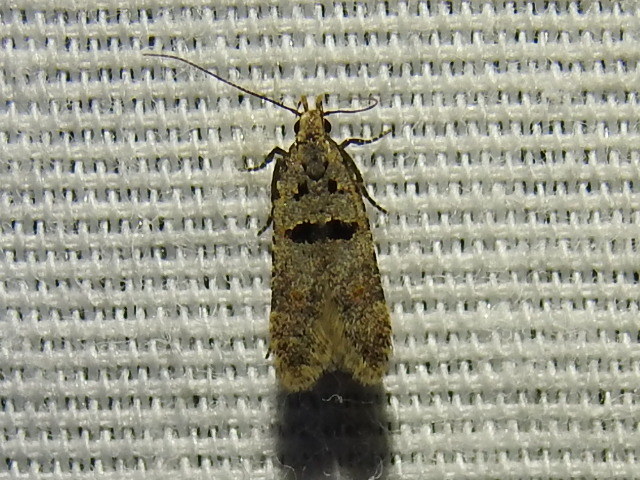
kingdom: Animalia
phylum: Arthropoda
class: Insecta
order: Lepidoptera
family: Gelechiidae
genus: Deltophora
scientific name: Deltophora glandiferella
